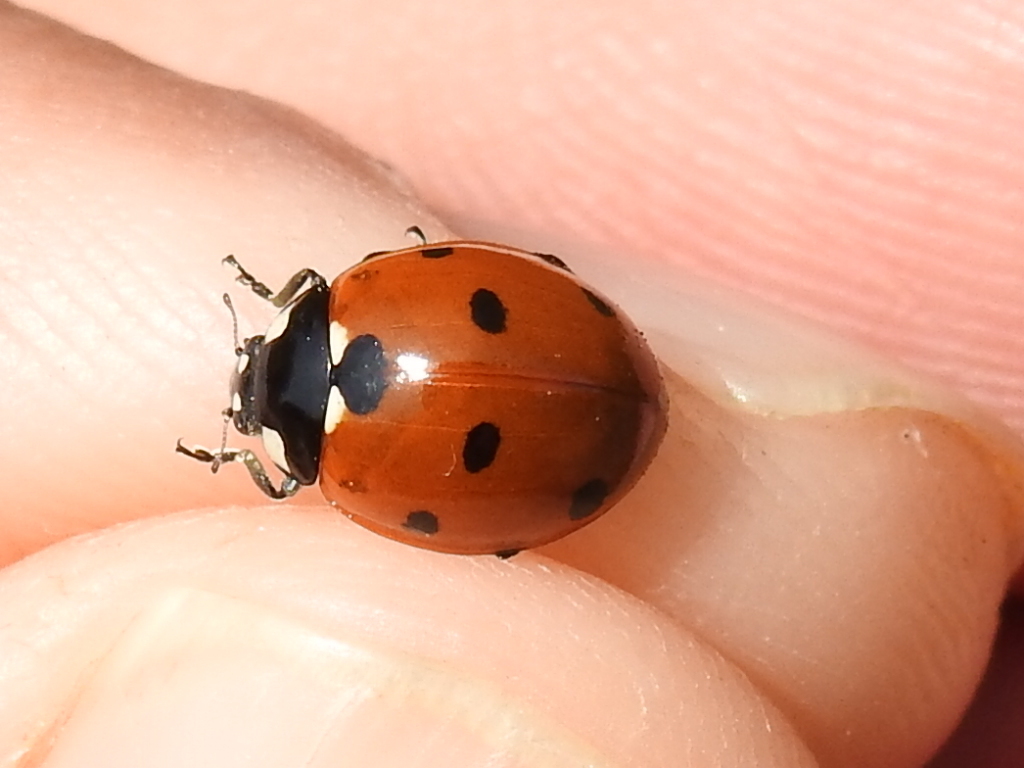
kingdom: Animalia
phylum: Arthropoda
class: Insecta
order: Coleoptera
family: Coccinellidae
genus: Coccinella
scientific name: Coccinella septempunctata
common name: Sevenspotted lady beetle
